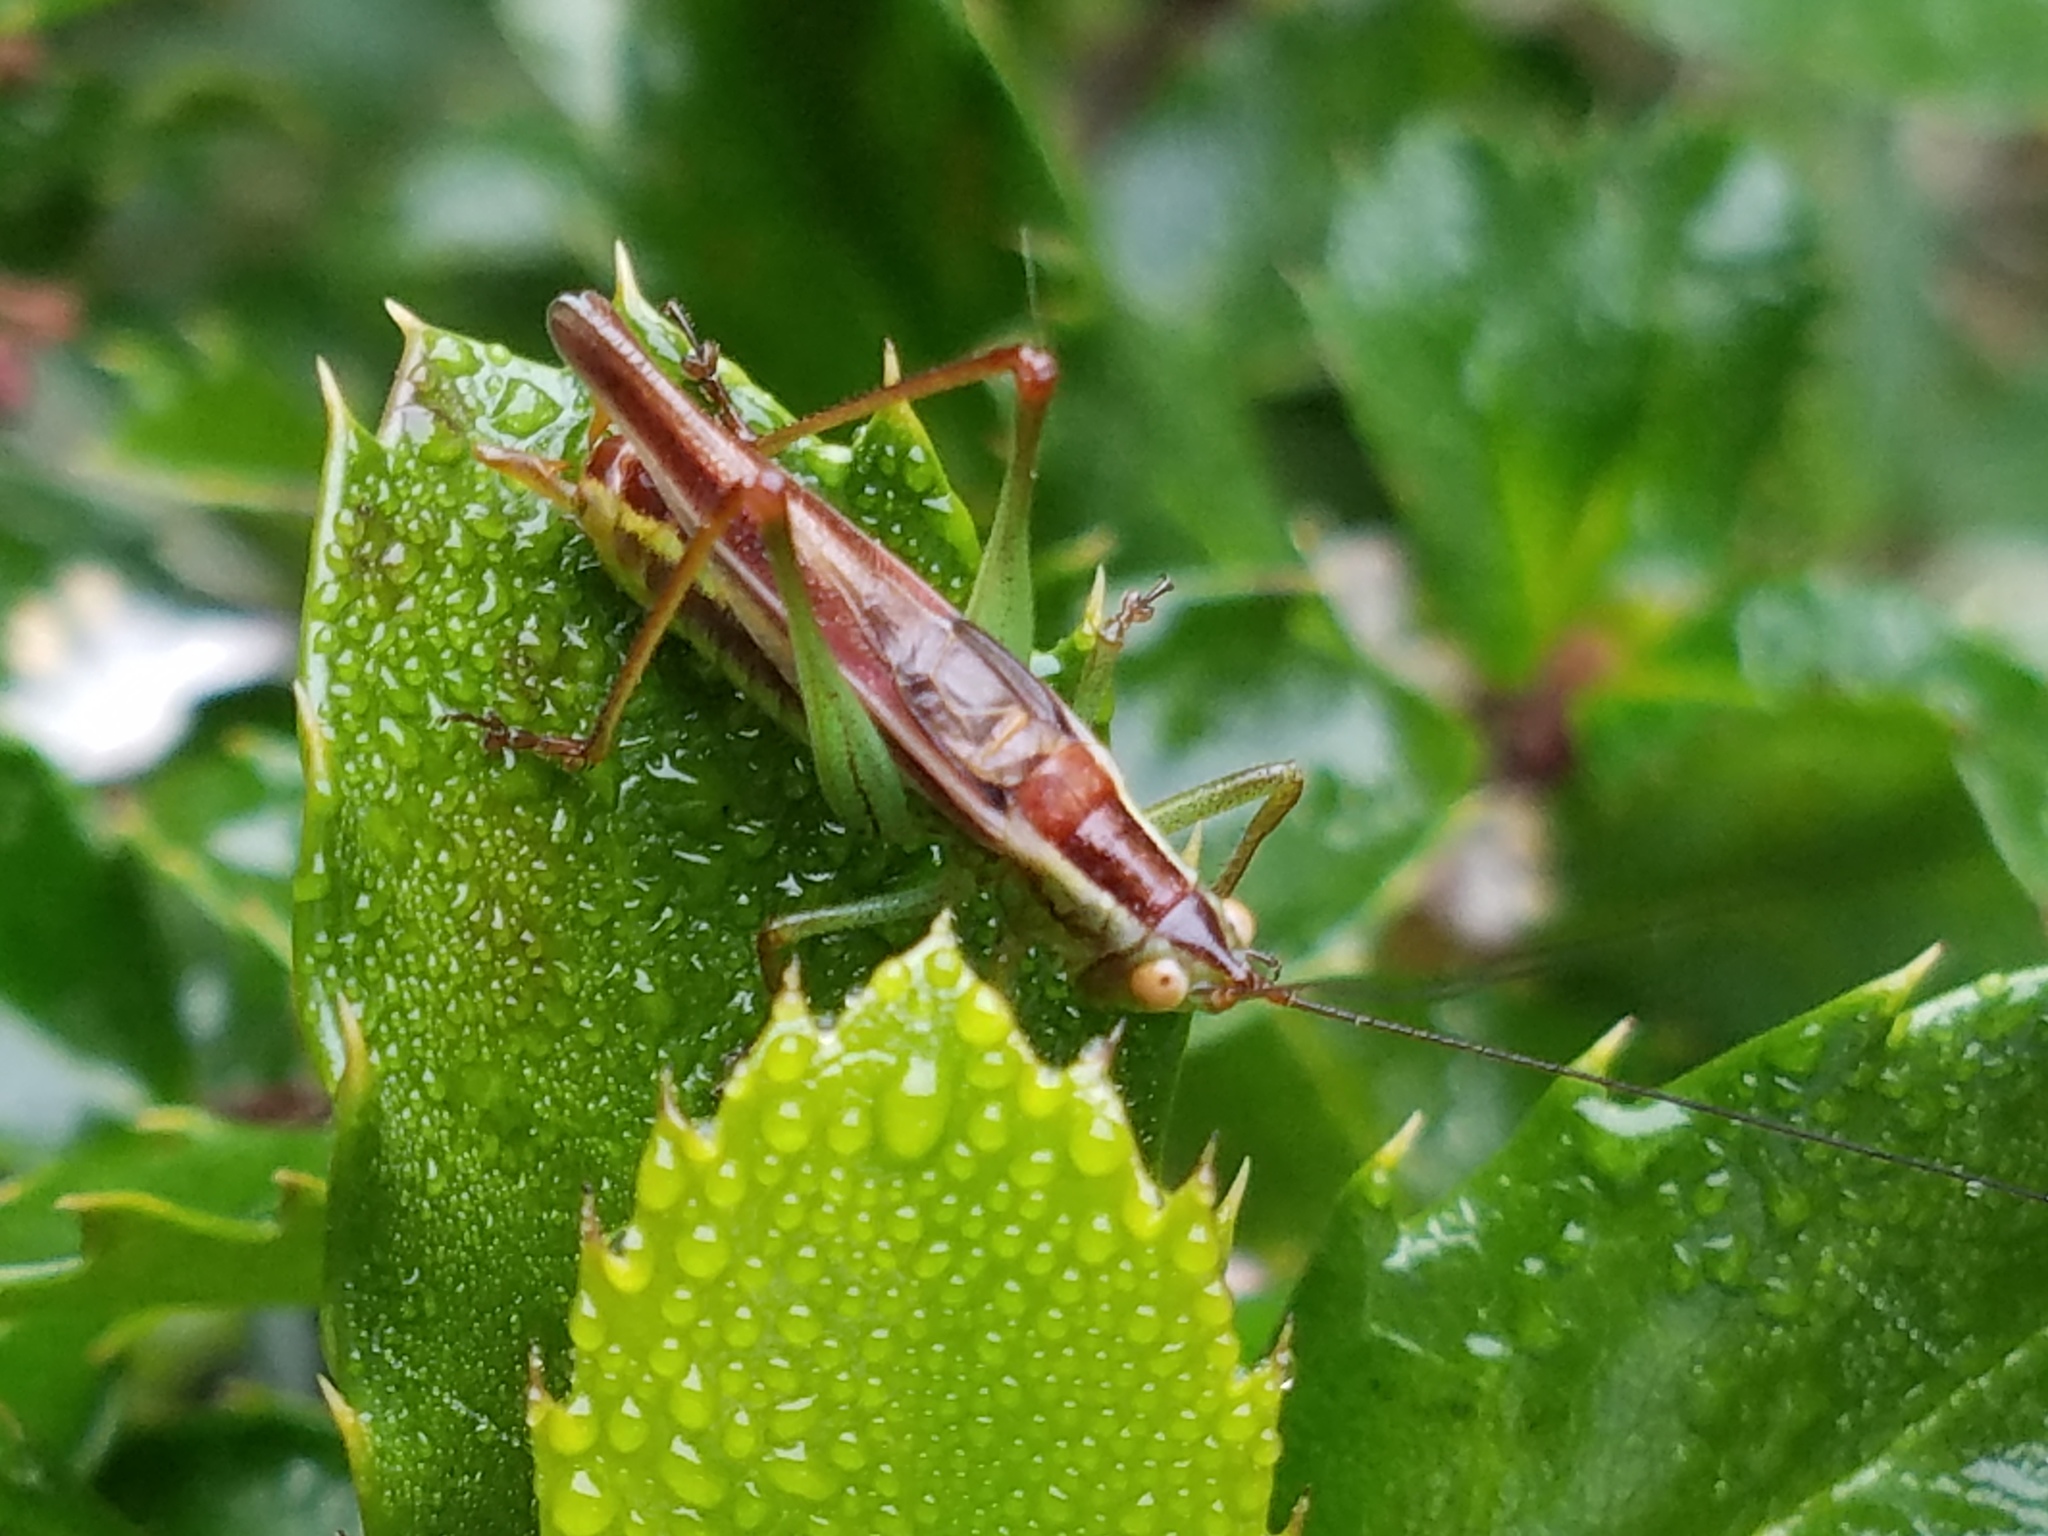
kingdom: Animalia
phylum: Arthropoda
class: Insecta
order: Orthoptera
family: Tettigoniidae
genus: Orchelimum
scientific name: Orchelimum minor
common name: Lesser pine meadow katydid
